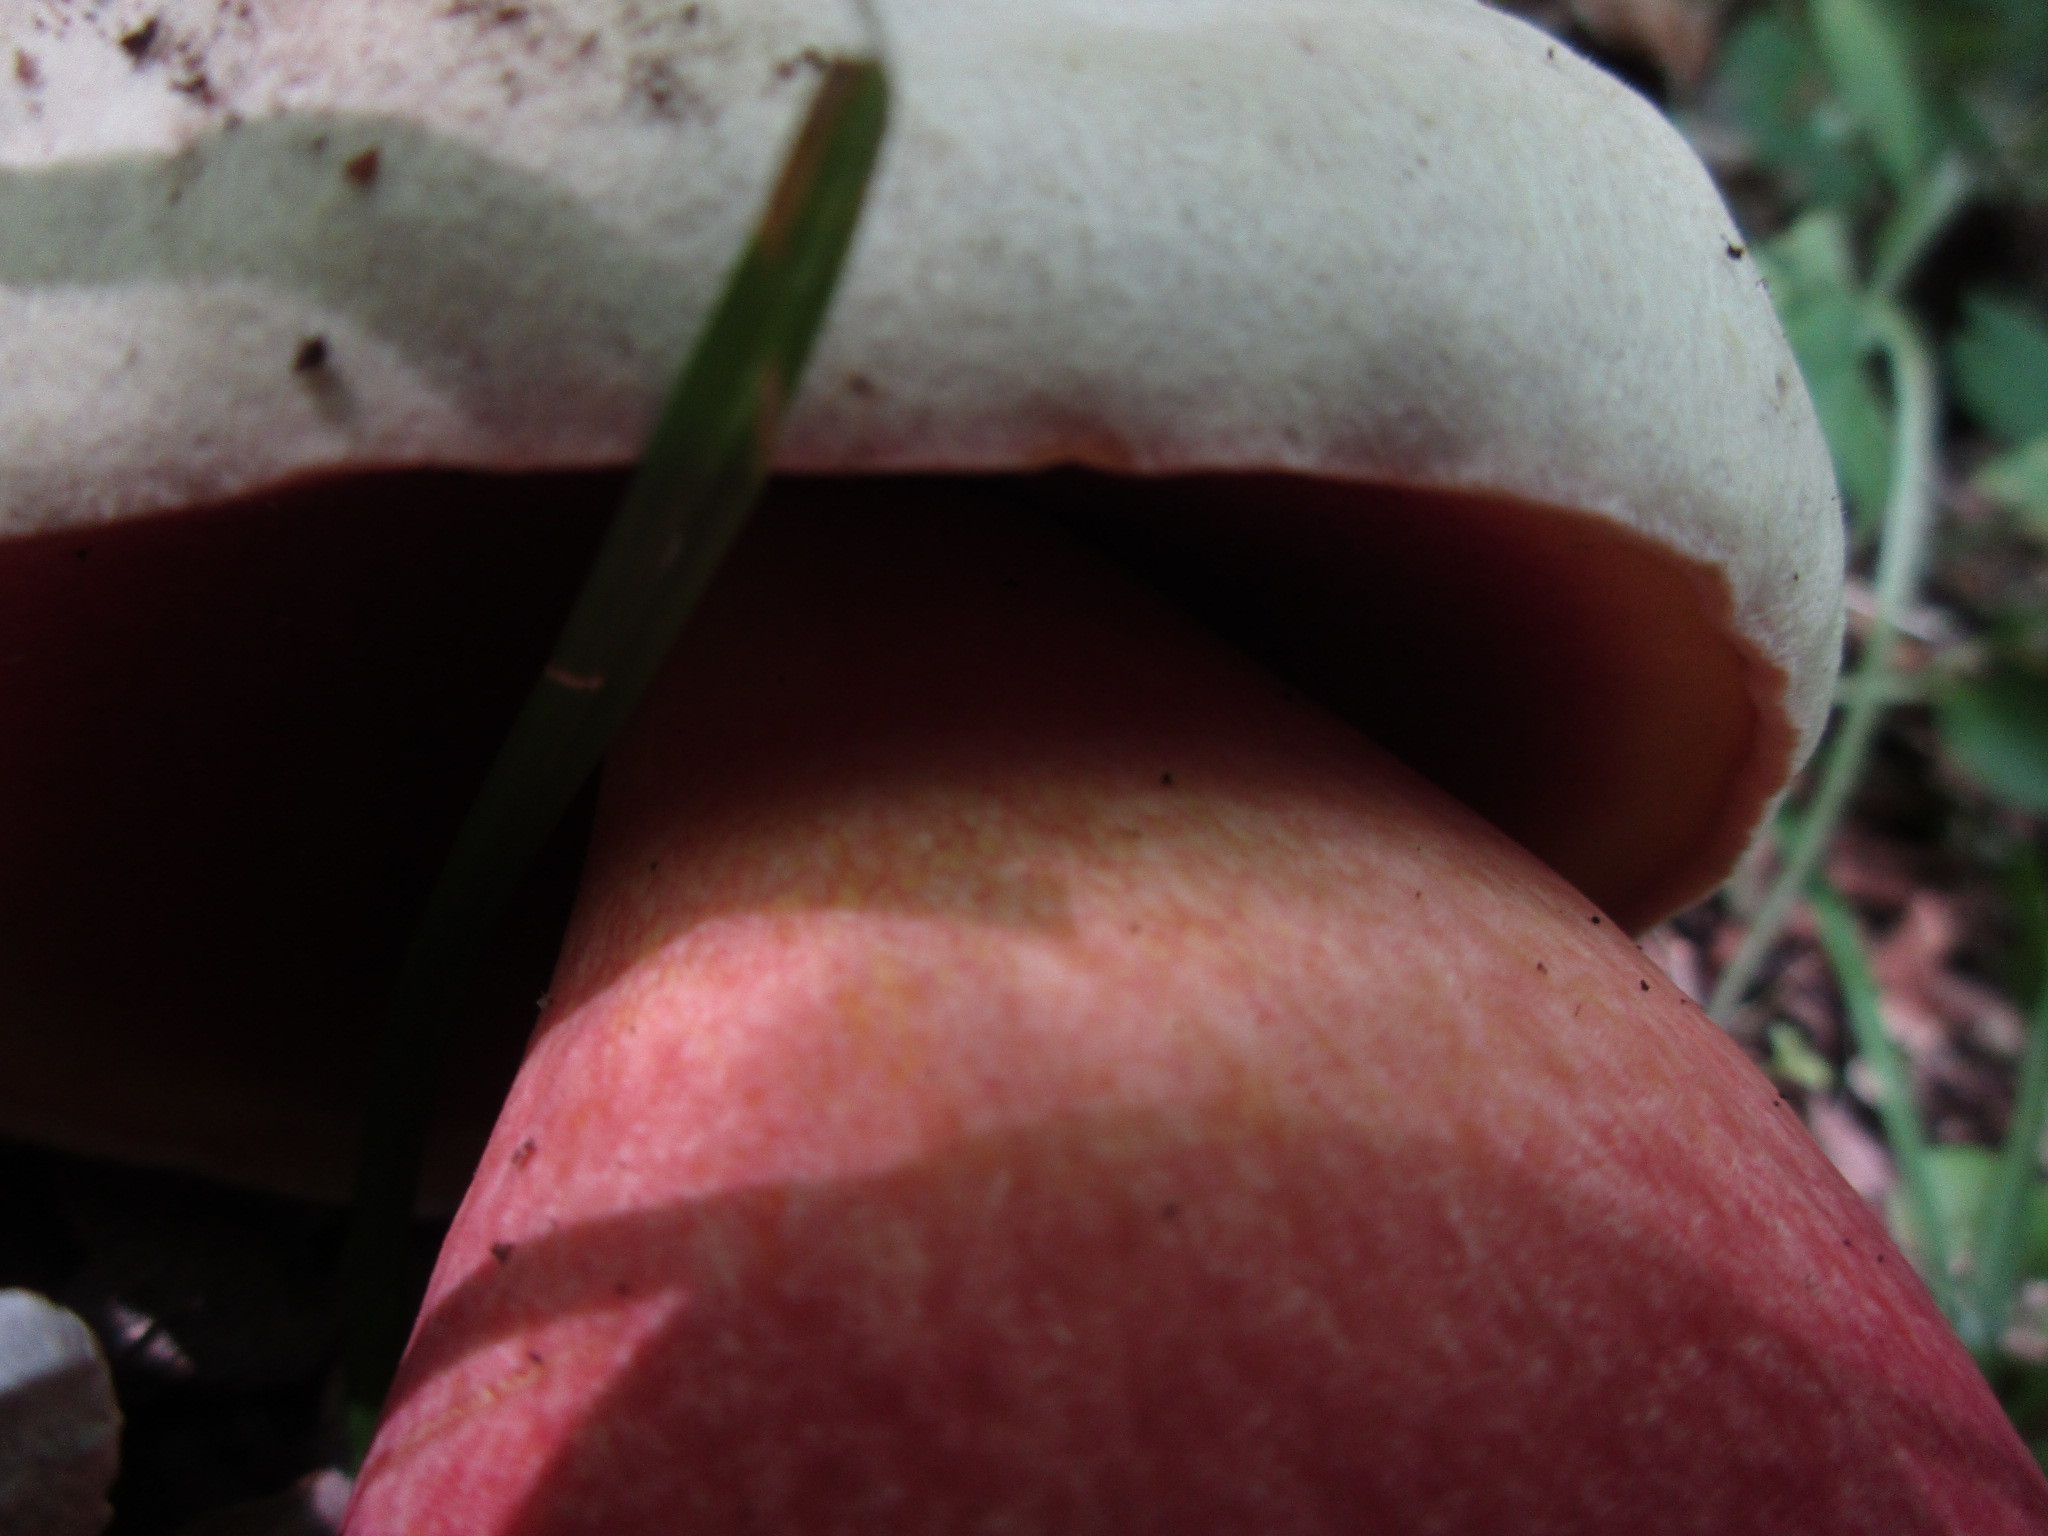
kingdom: Fungi
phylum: Basidiomycota
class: Agaricomycetes
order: Boletales
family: Boletaceae
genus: Rubroboletus
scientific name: Rubroboletus satanas
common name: Devil's bolete
